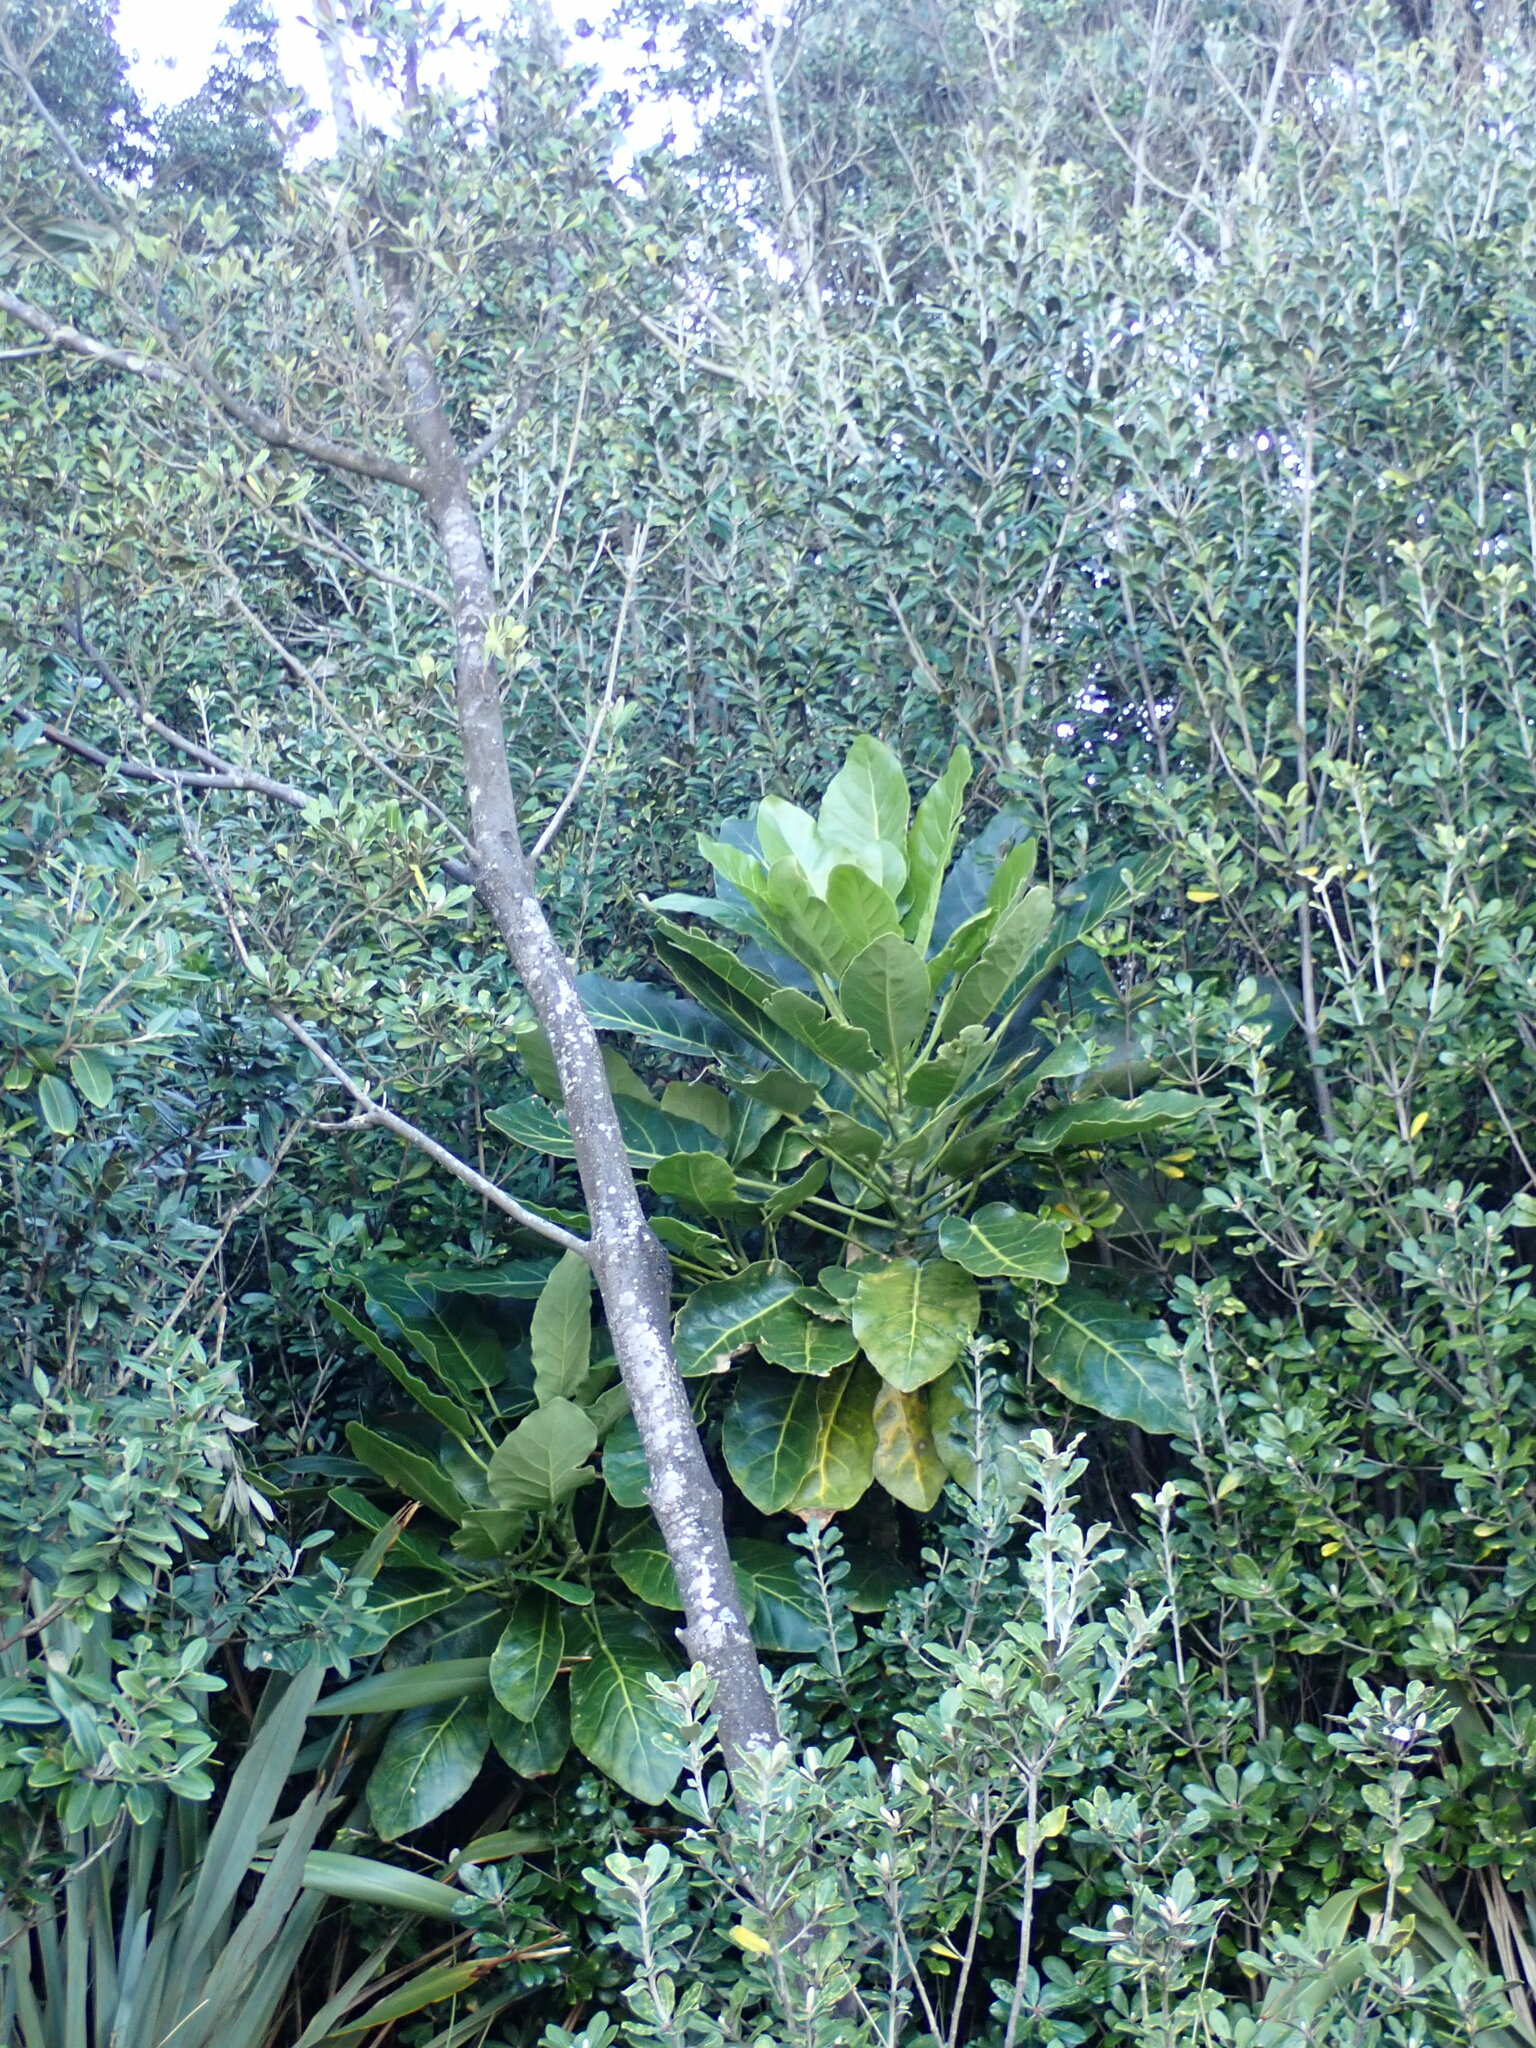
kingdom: Plantae
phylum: Tracheophyta
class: Magnoliopsida
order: Apiales
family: Araliaceae
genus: Meryta
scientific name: Meryta sinclairii
